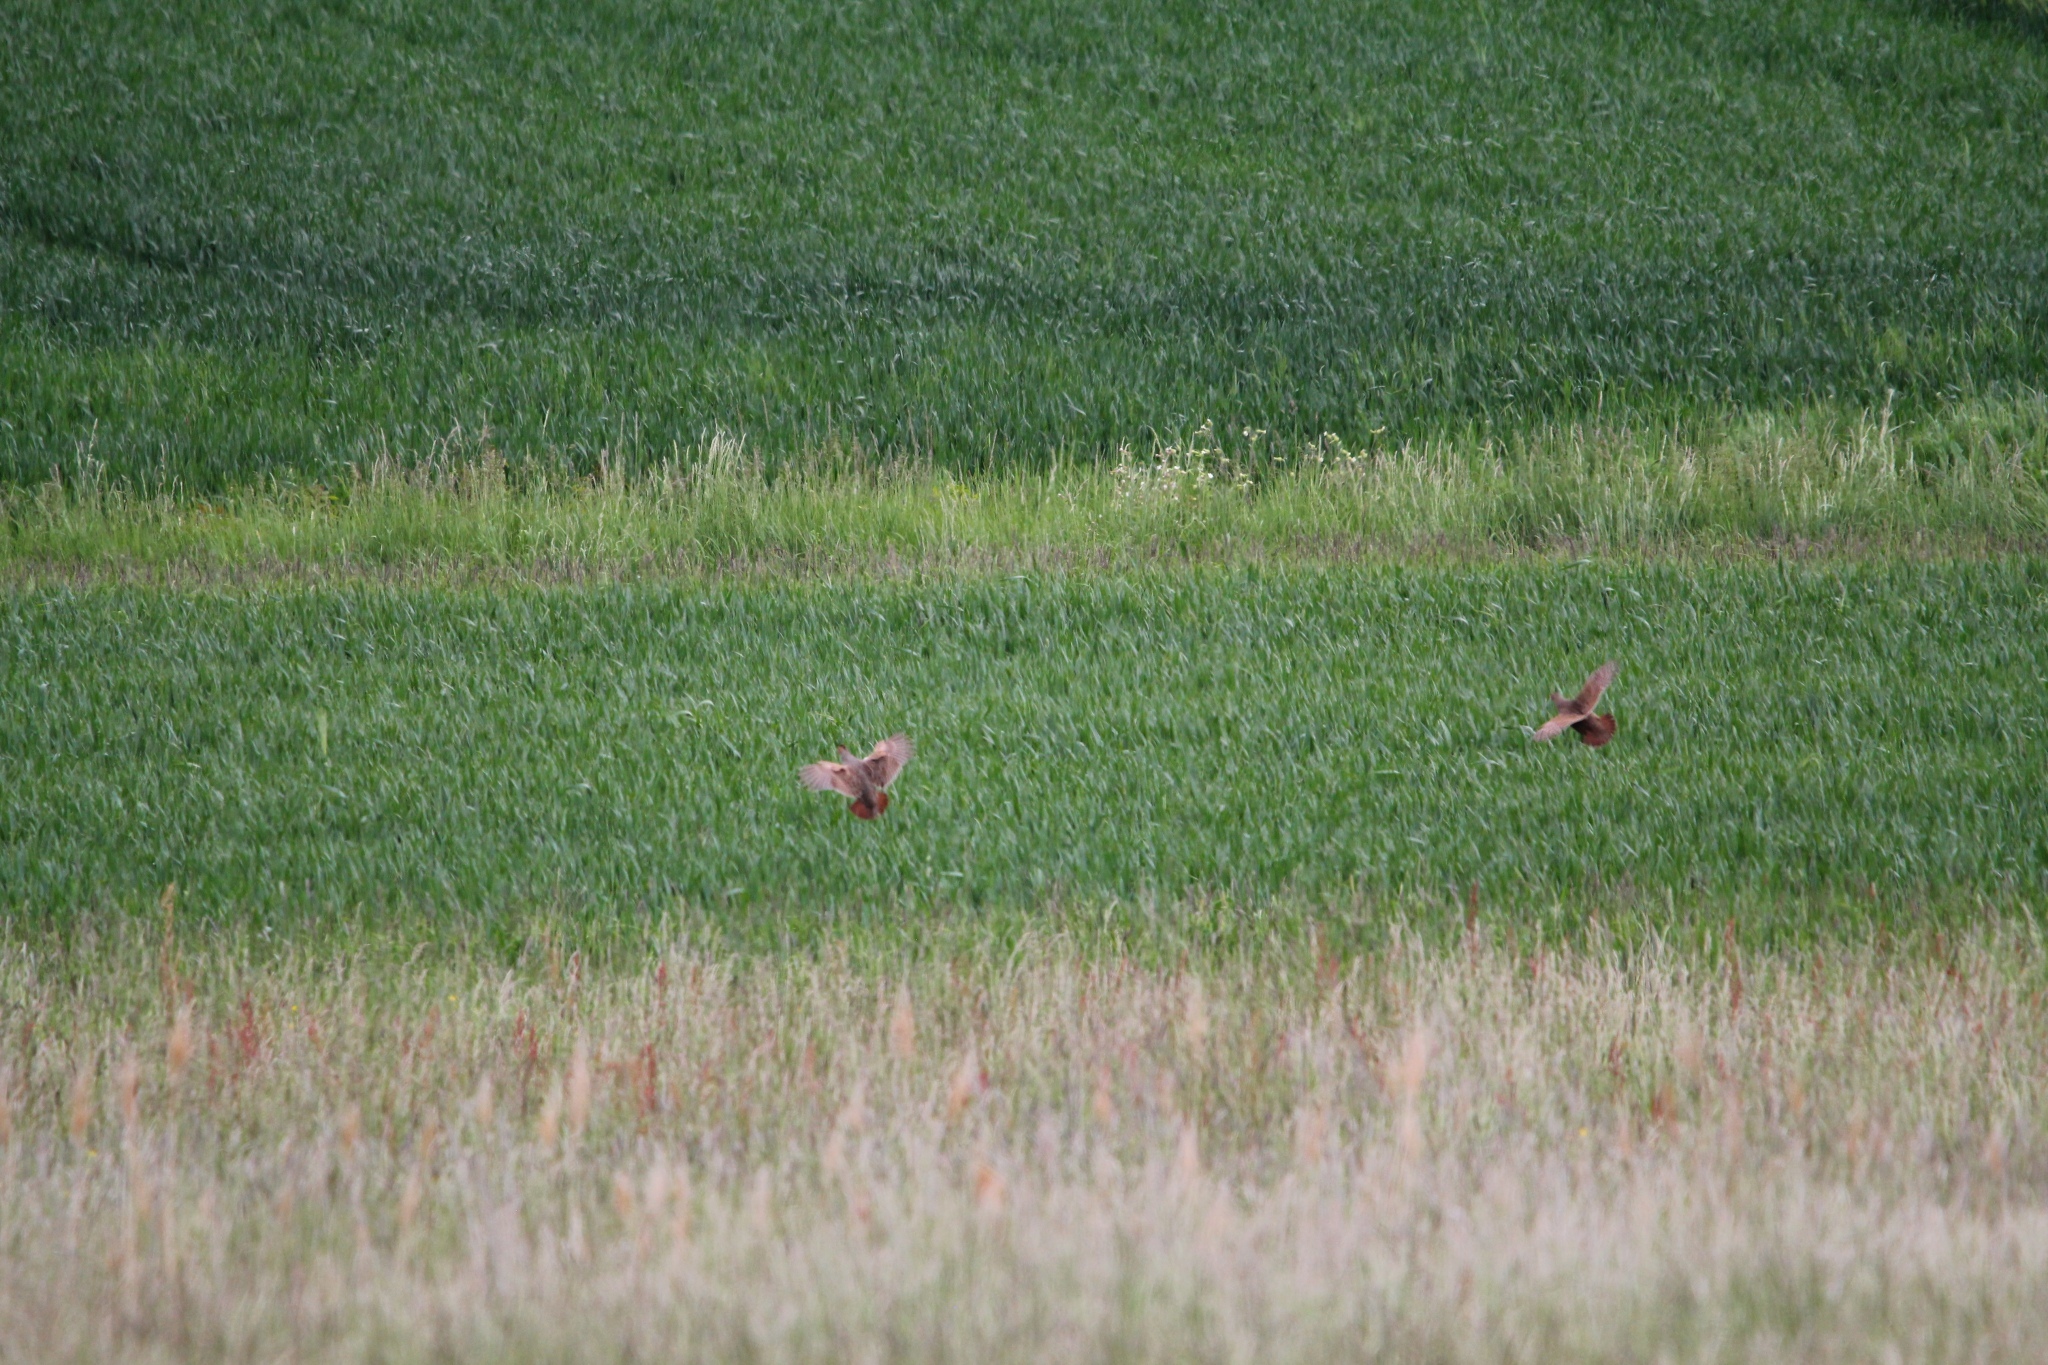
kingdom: Animalia
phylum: Chordata
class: Aves
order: Galliformes
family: Phasianidae
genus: Perdix
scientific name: Perdix perdix
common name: Grey partridge
